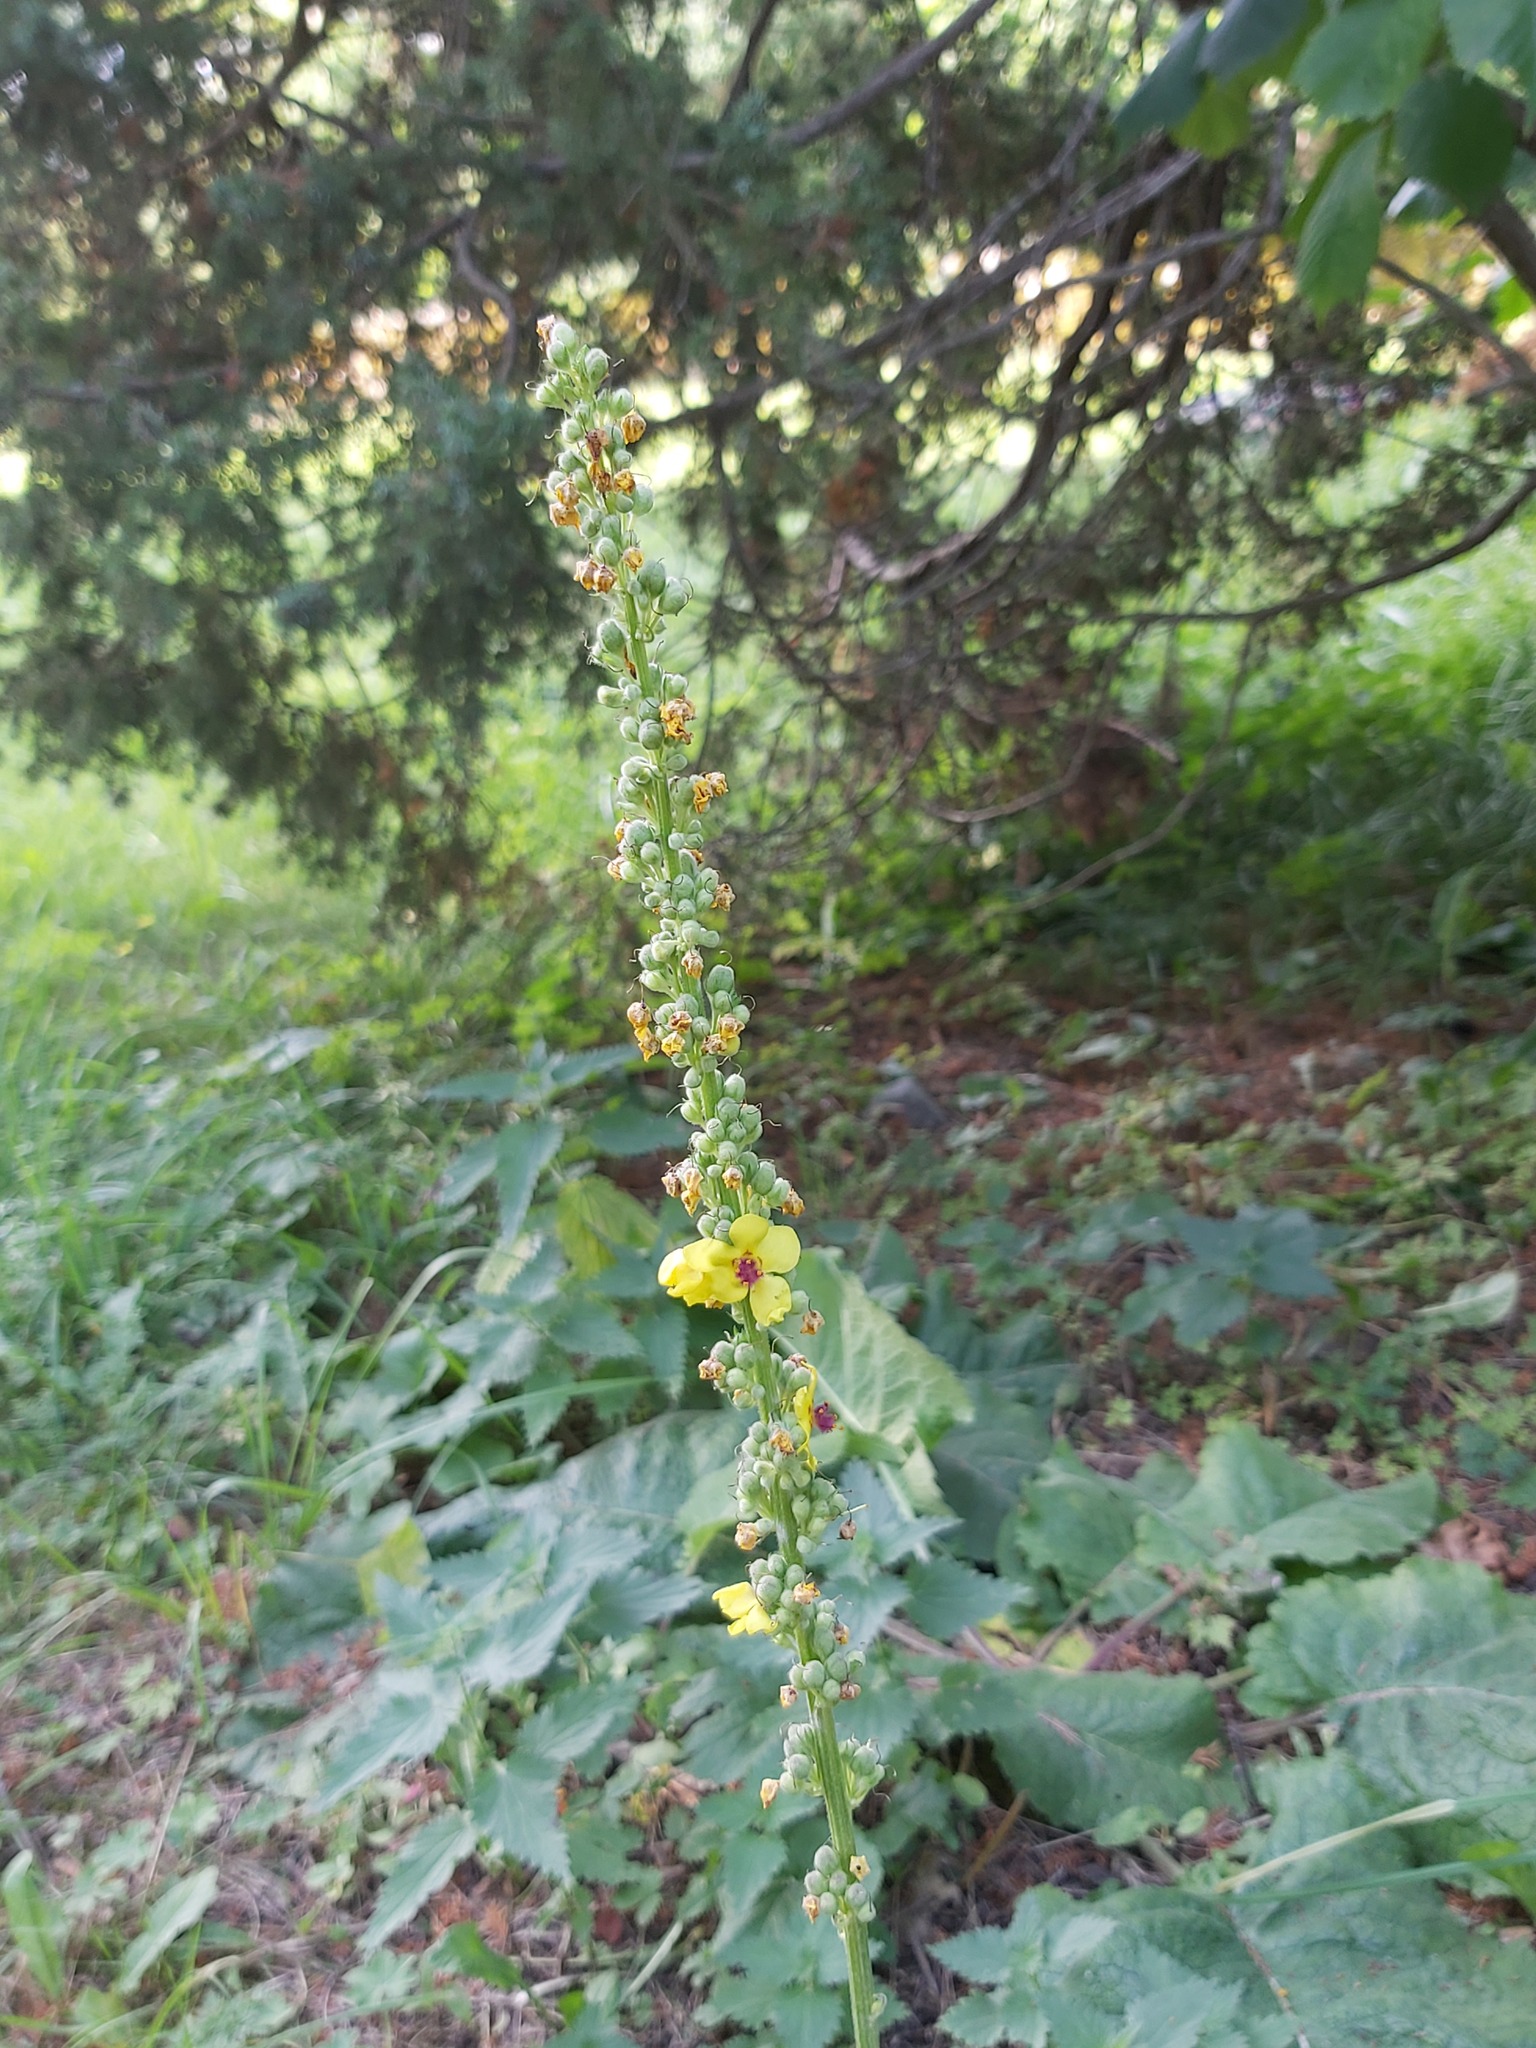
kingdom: Plantae
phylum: Tracheophyta
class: Magnoliopsida
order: Lamiales
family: Scrophulariaceae
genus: Verbascum
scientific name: Verbascum nigrum
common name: Dark mullein
